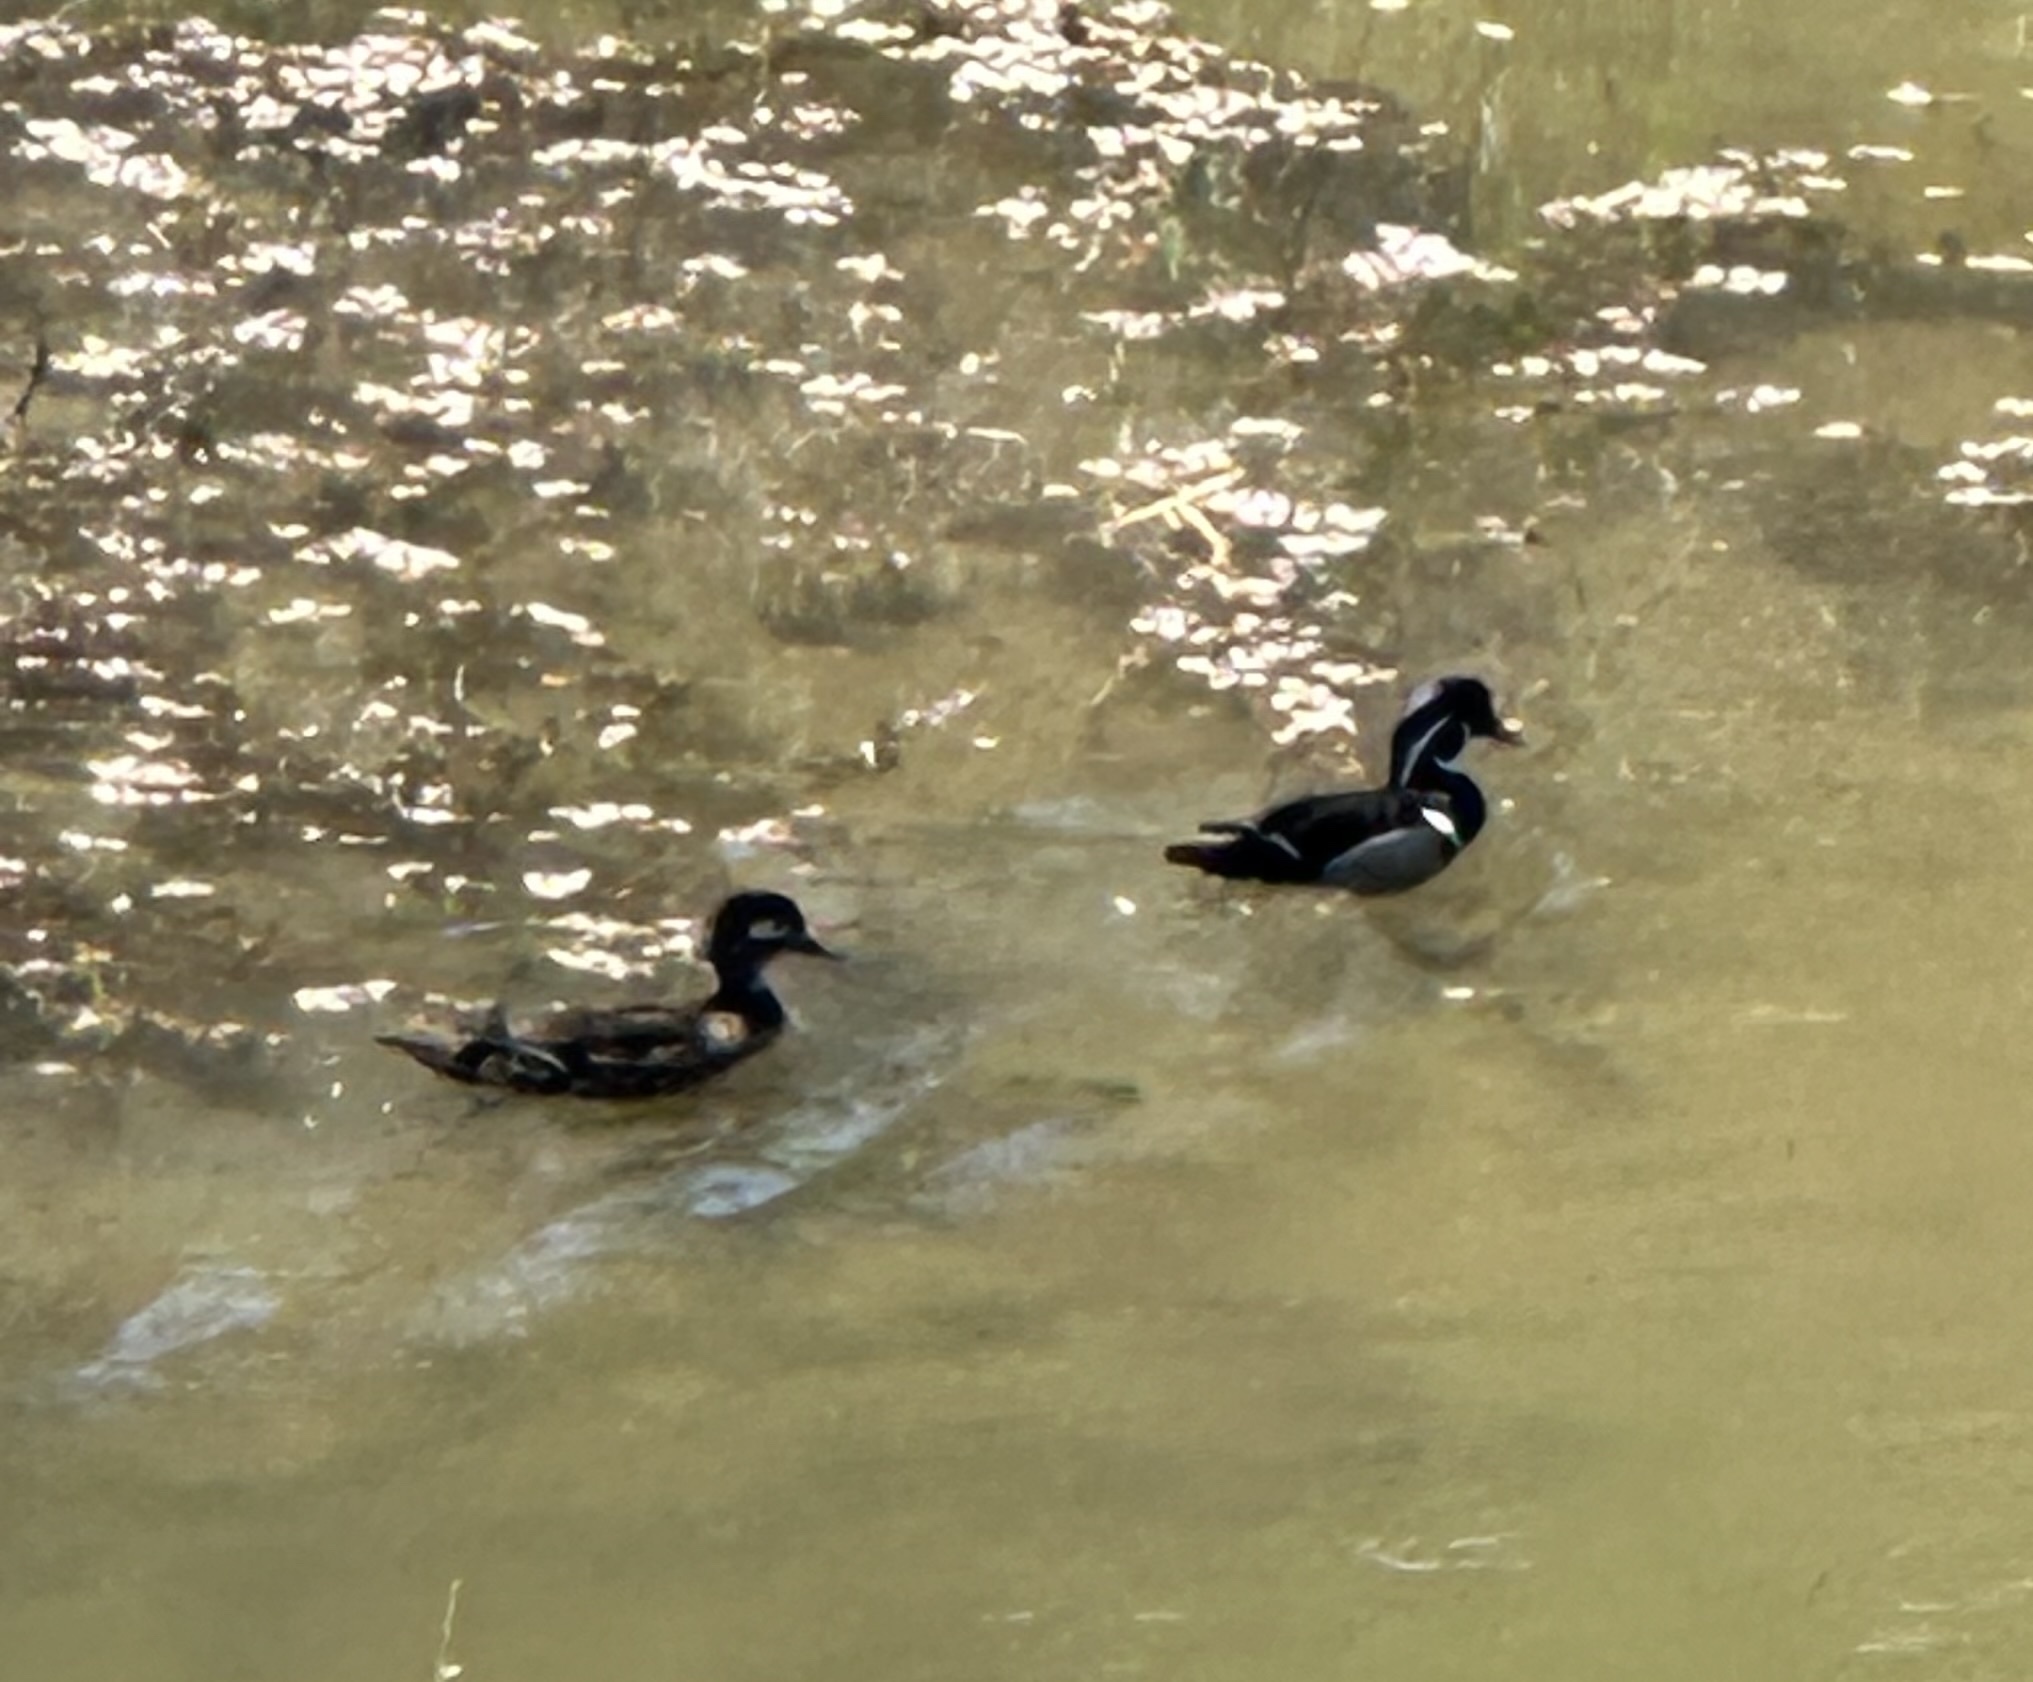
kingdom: Animalia
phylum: Chordata
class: Aves
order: Anseriformes
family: Anatidae
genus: Aix
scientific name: Aix sponsa
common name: Wood duck
